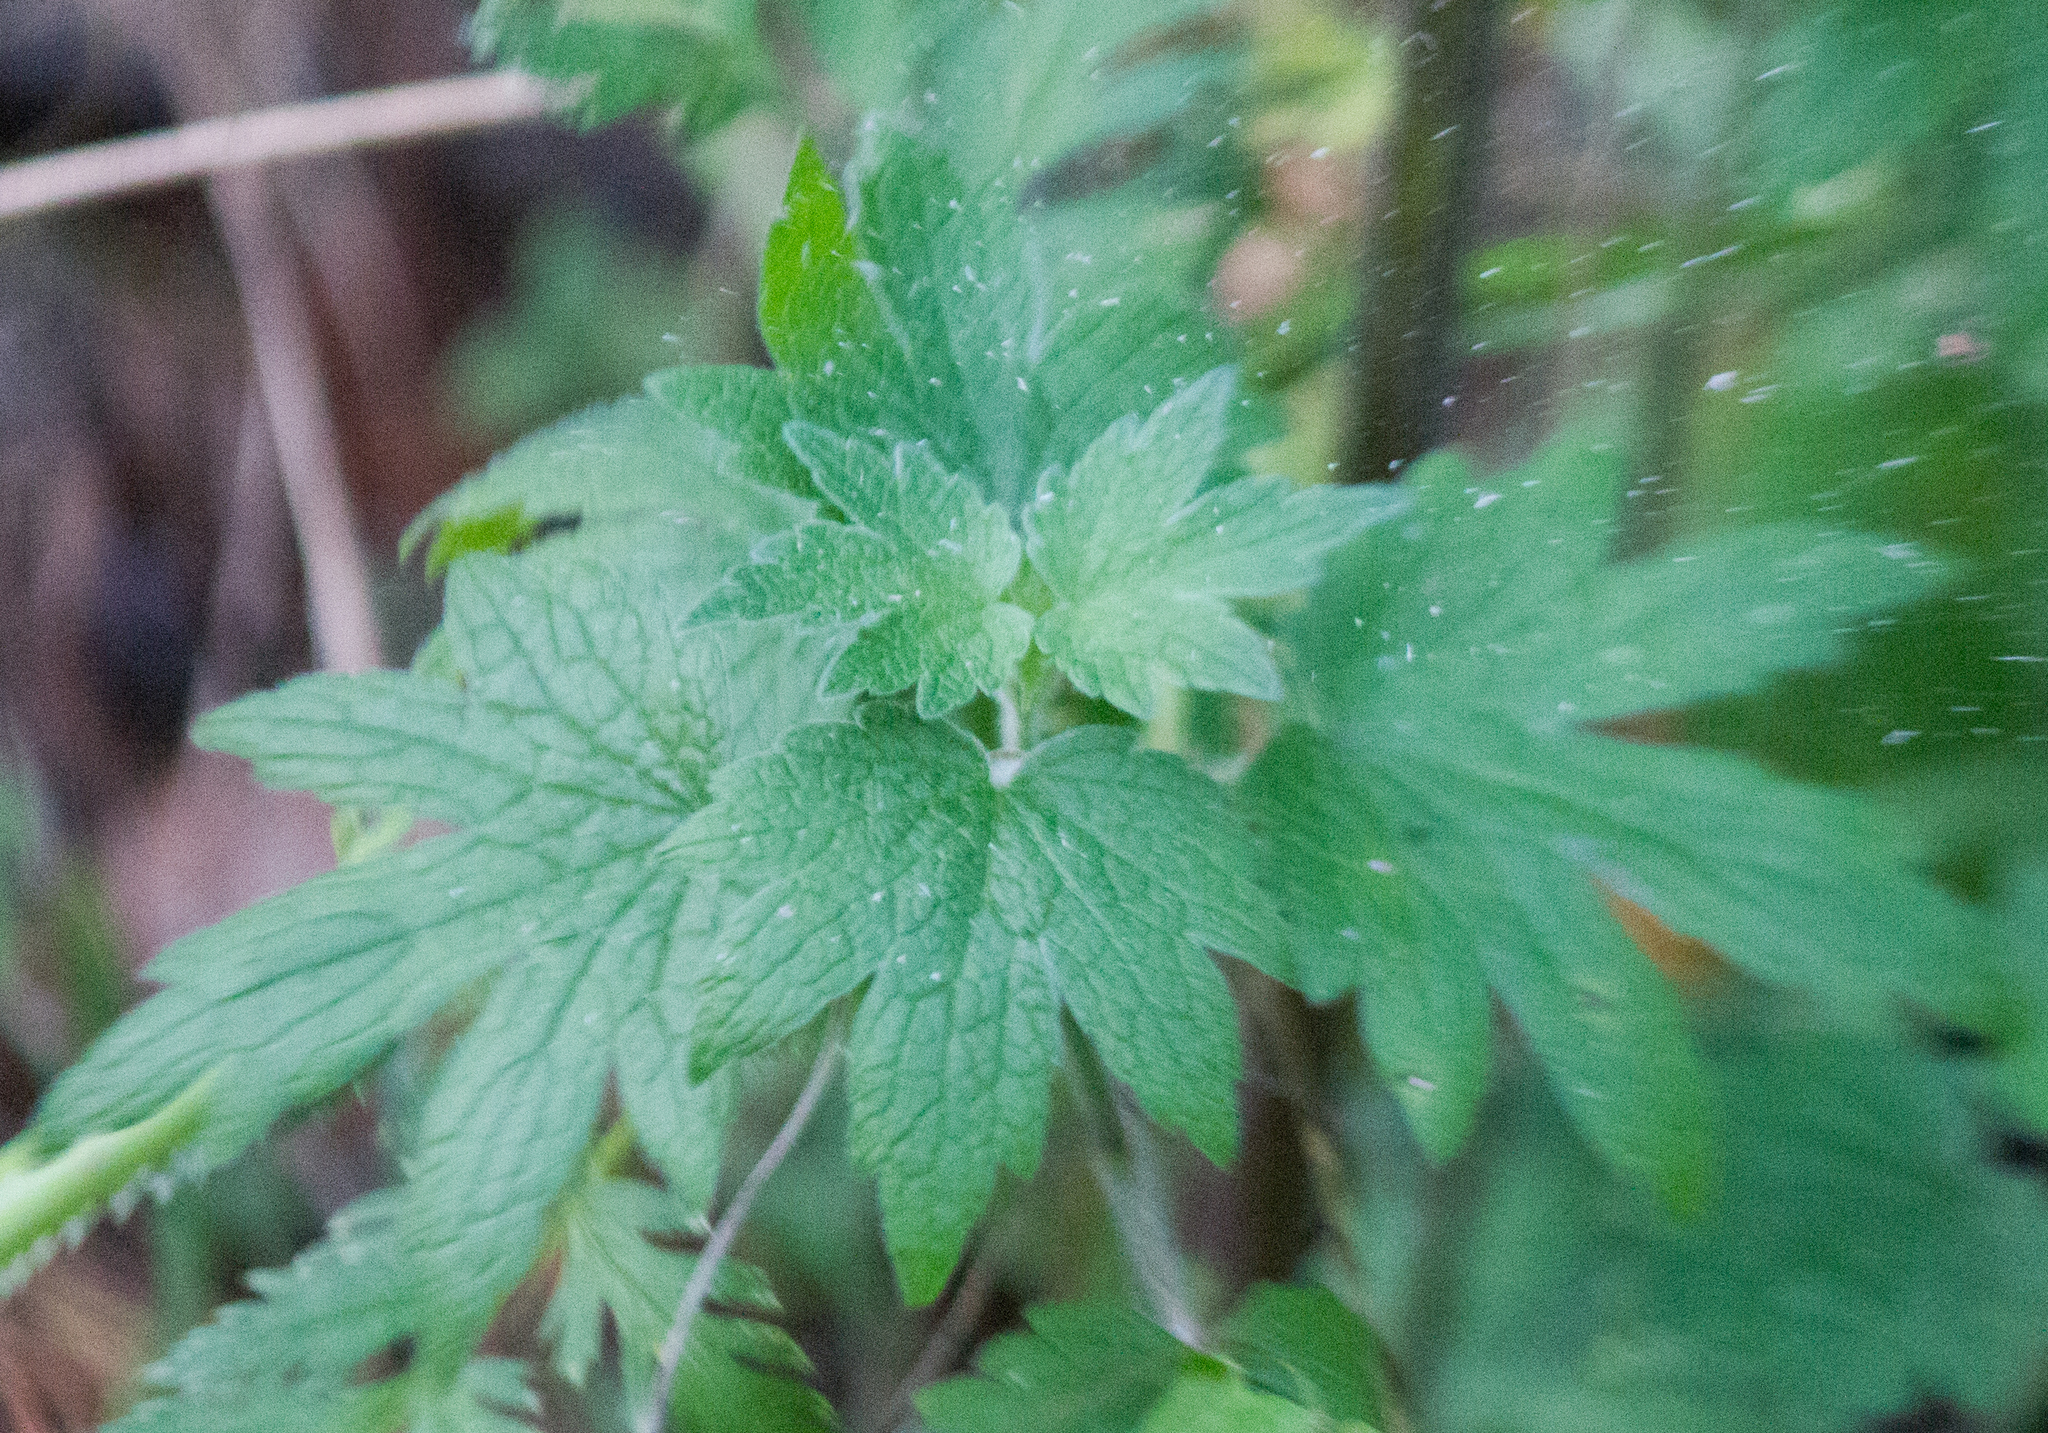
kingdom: Plantae
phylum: Tracheophyta
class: Magnoliopsida
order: Lamiales
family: Lamiaceae
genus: Leonurus
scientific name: Leonurus quinquelobatus
